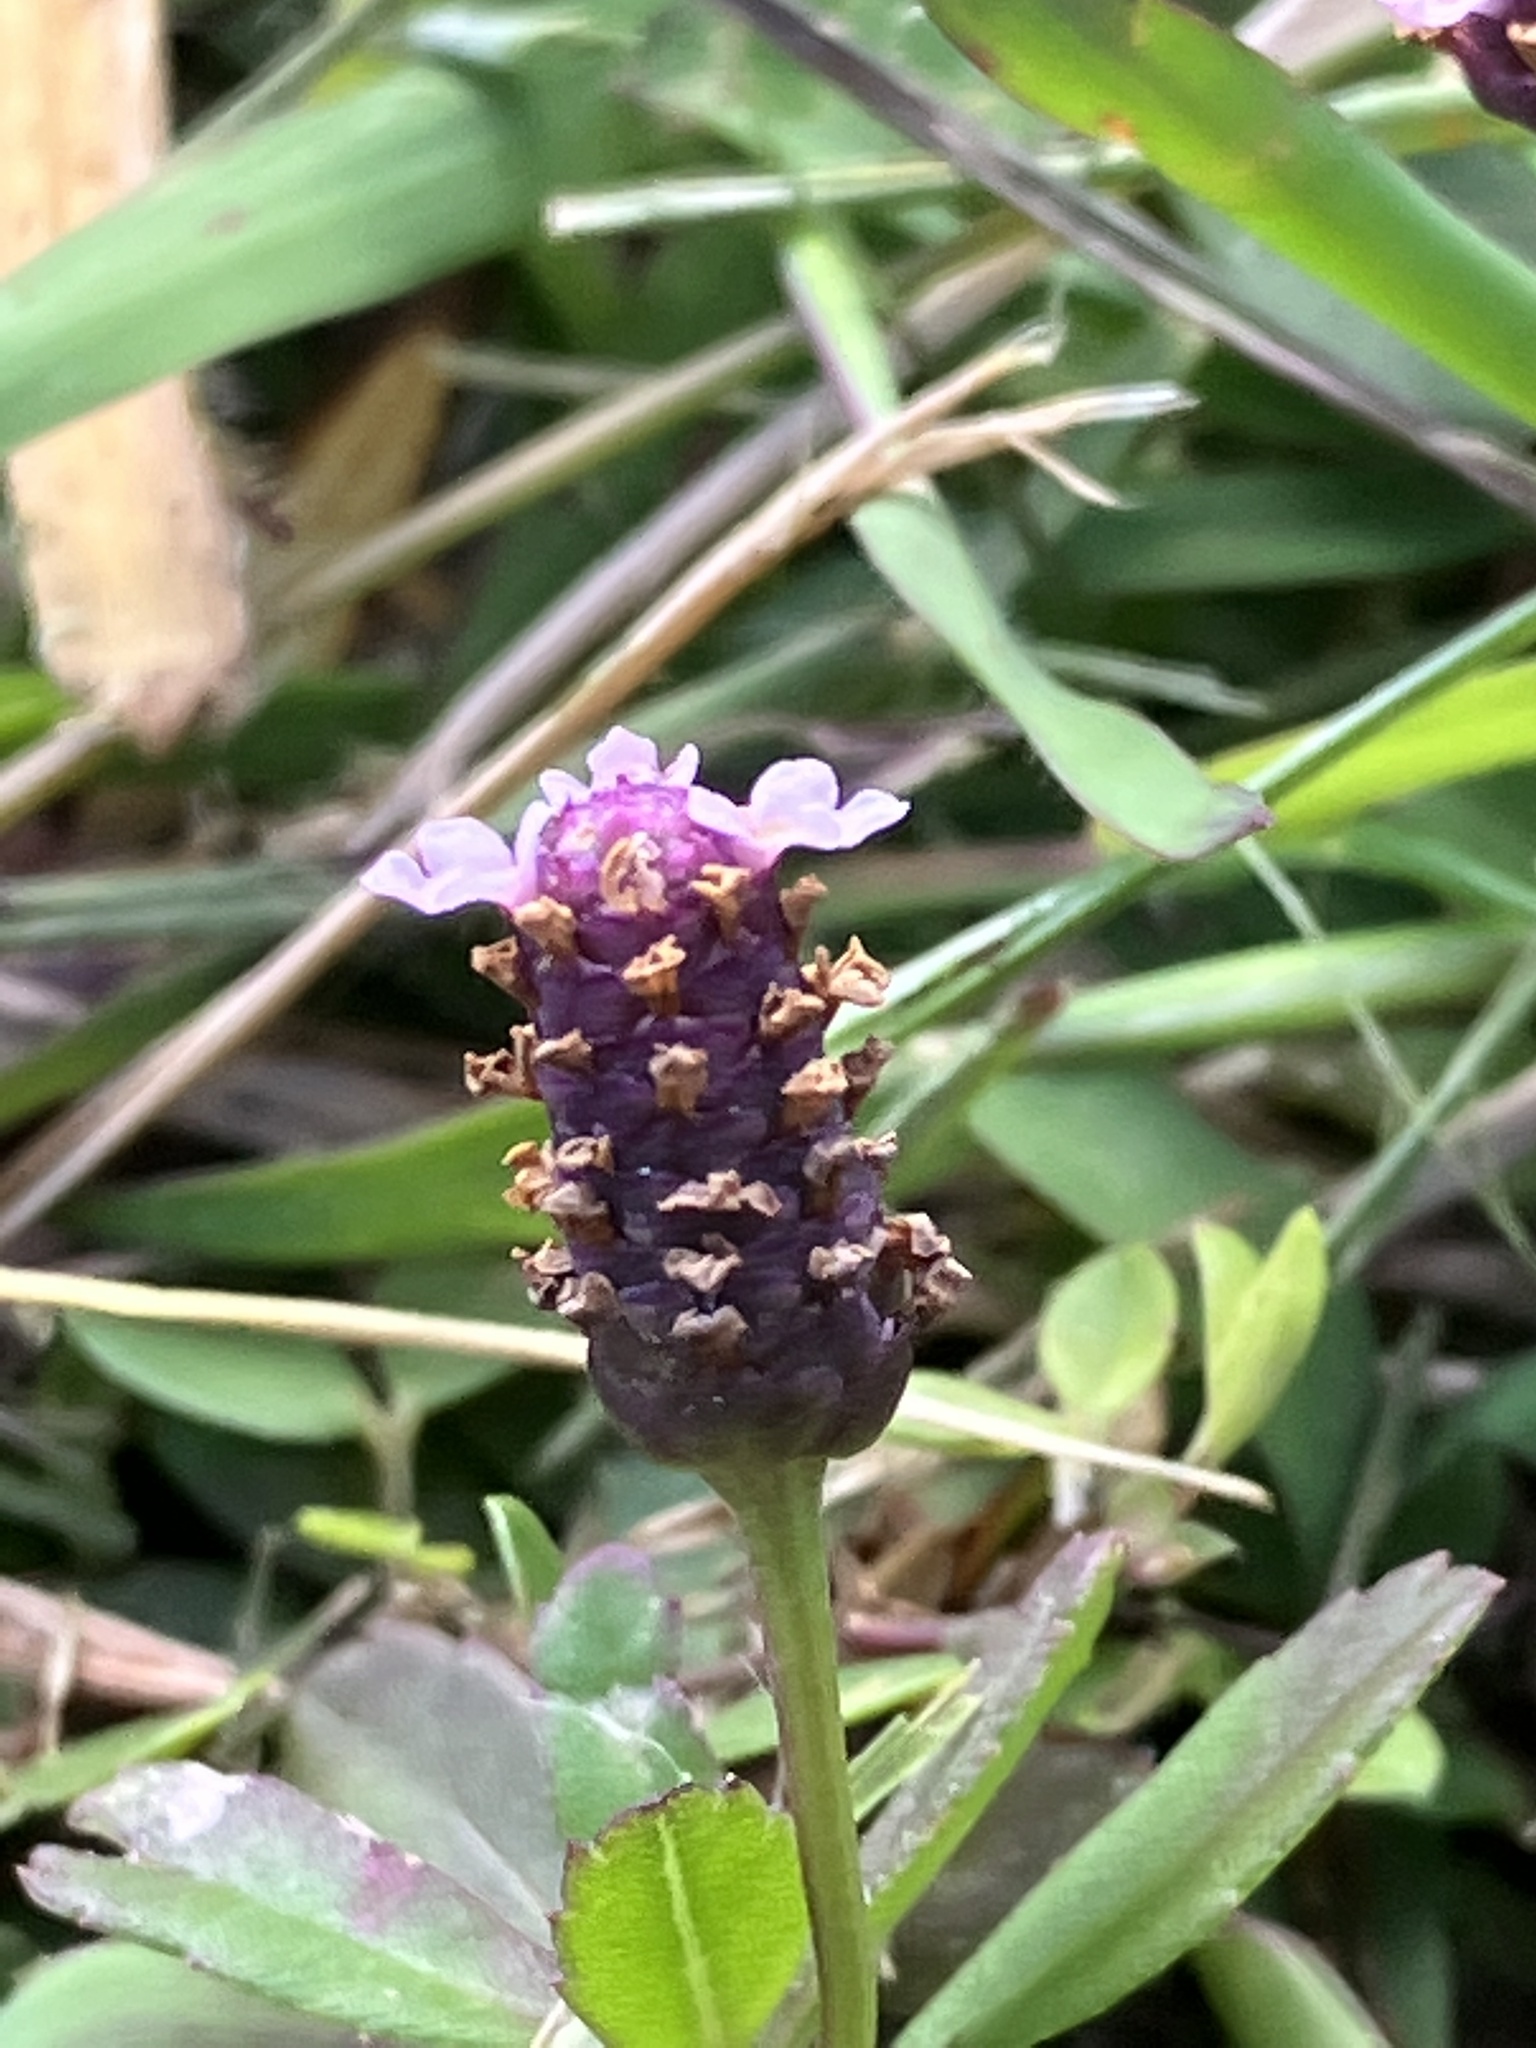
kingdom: Plantae
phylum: Tracheophyta
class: Magnoliopsida
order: Lamiales
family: Verbenaceae
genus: Phyla
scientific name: Phyla nodiflora
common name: Frogfruit
